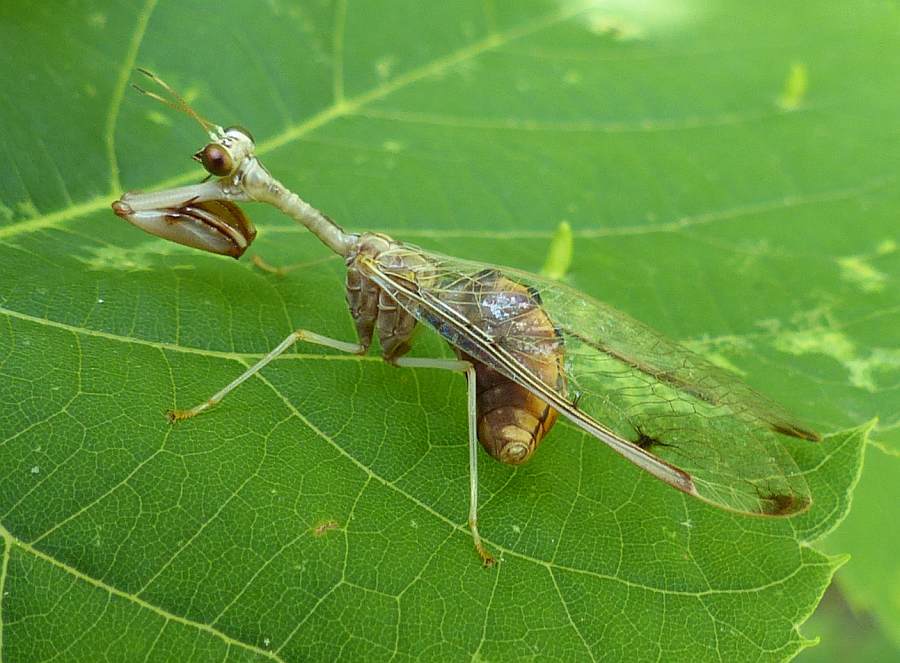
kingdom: Animalia
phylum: Arthropoda
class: Insecta
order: Neuroptera
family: Mantispidae
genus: Dicromantispa
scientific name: Dicromantispa interrupta
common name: Four-spotted mantidfly
